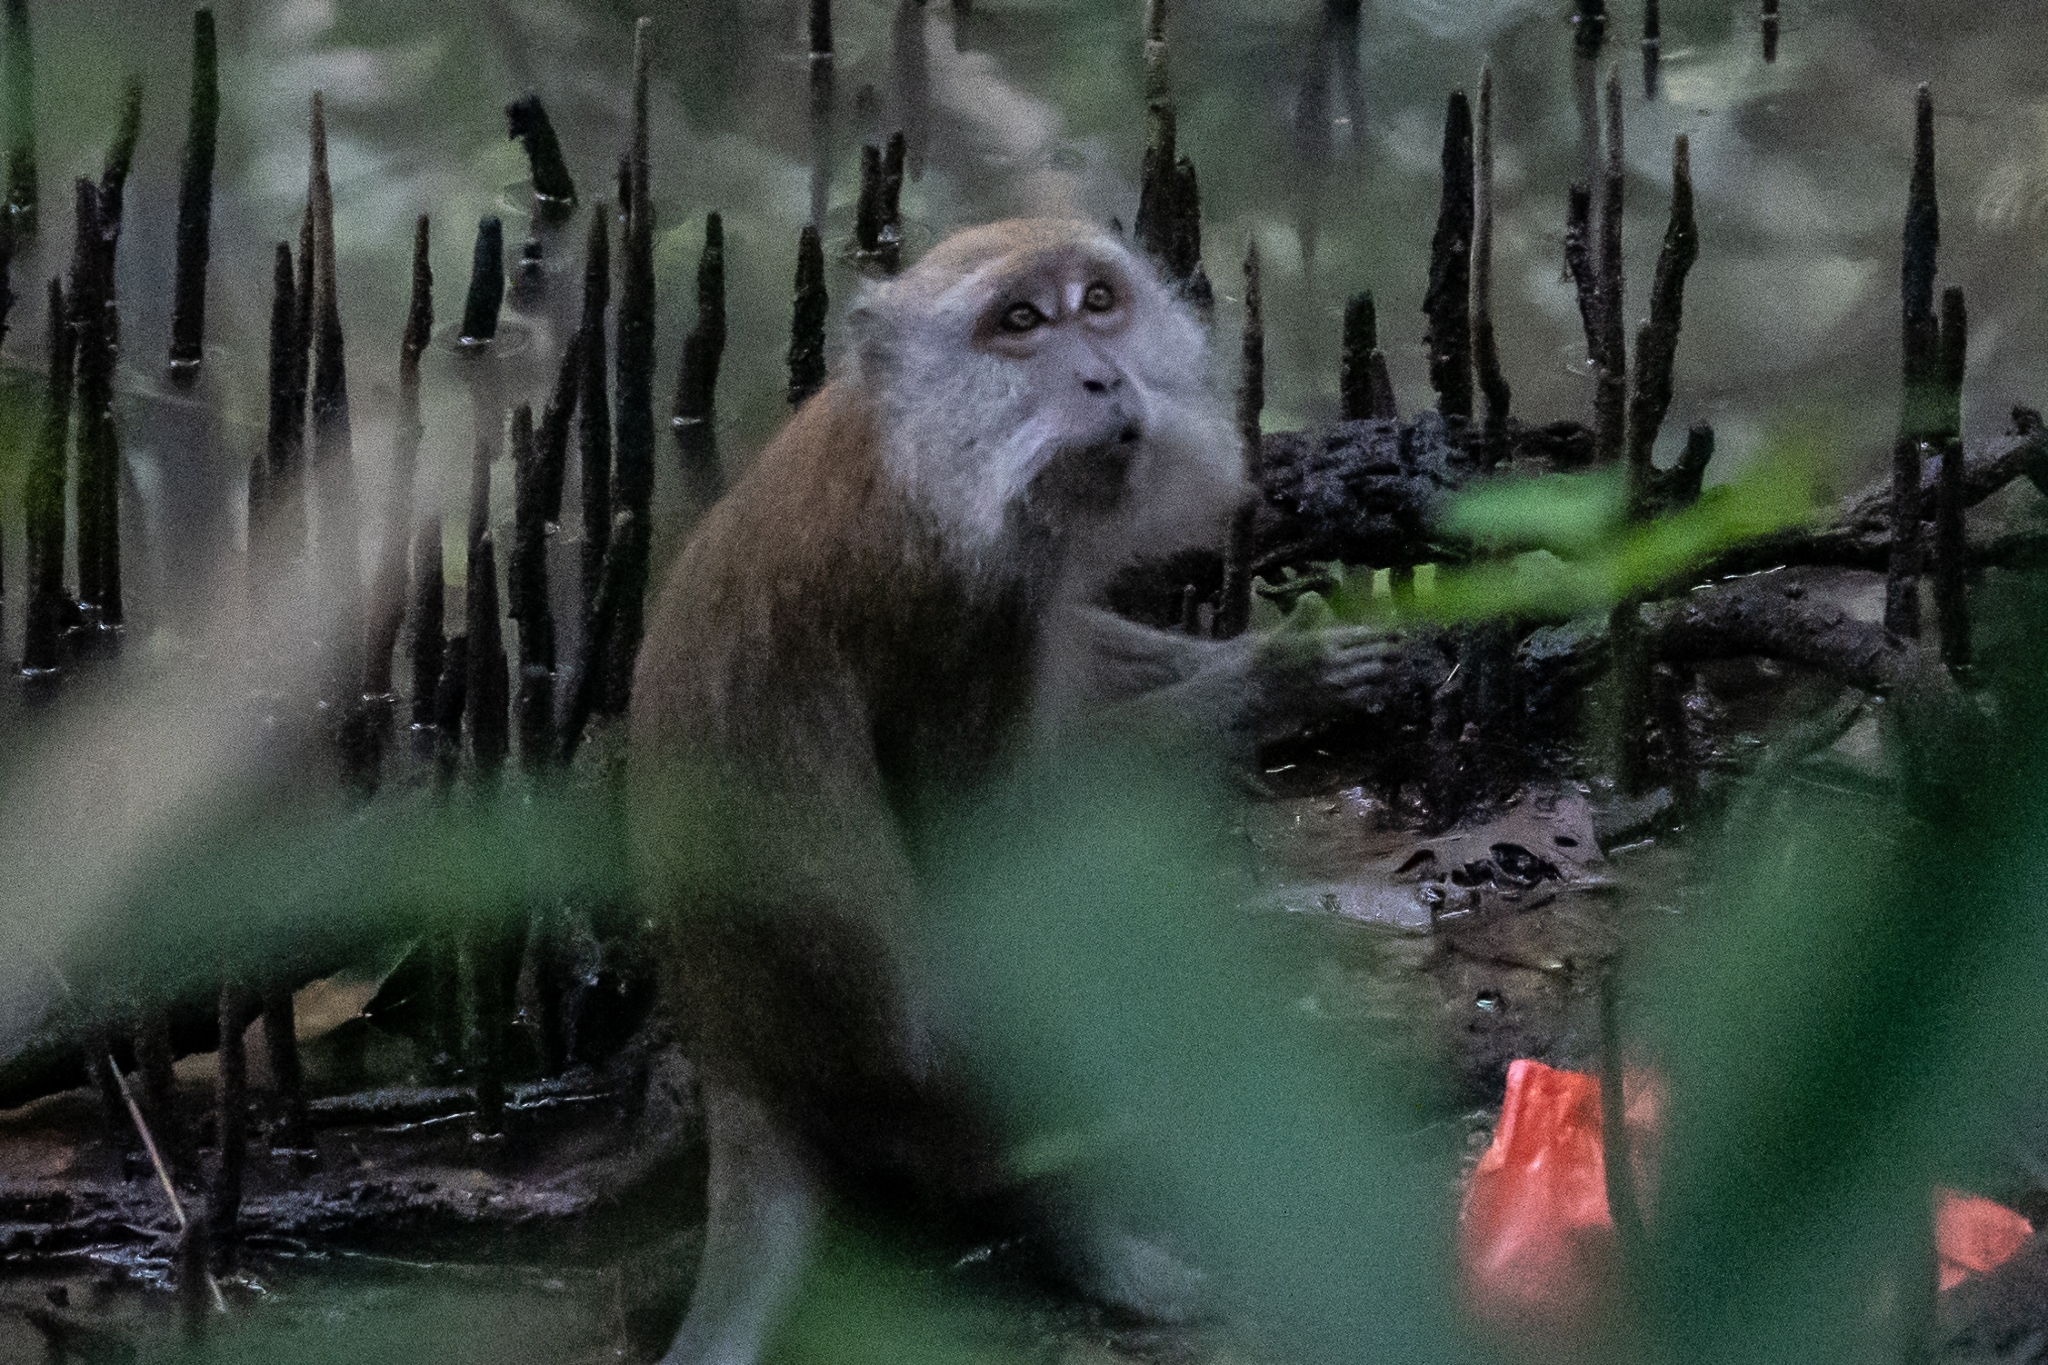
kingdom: Animalia
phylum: Chordata
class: Mammalia
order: Primates
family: Cercopithecidae
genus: Macaca
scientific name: Macaca fascicularis
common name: Crab-eating macaque
